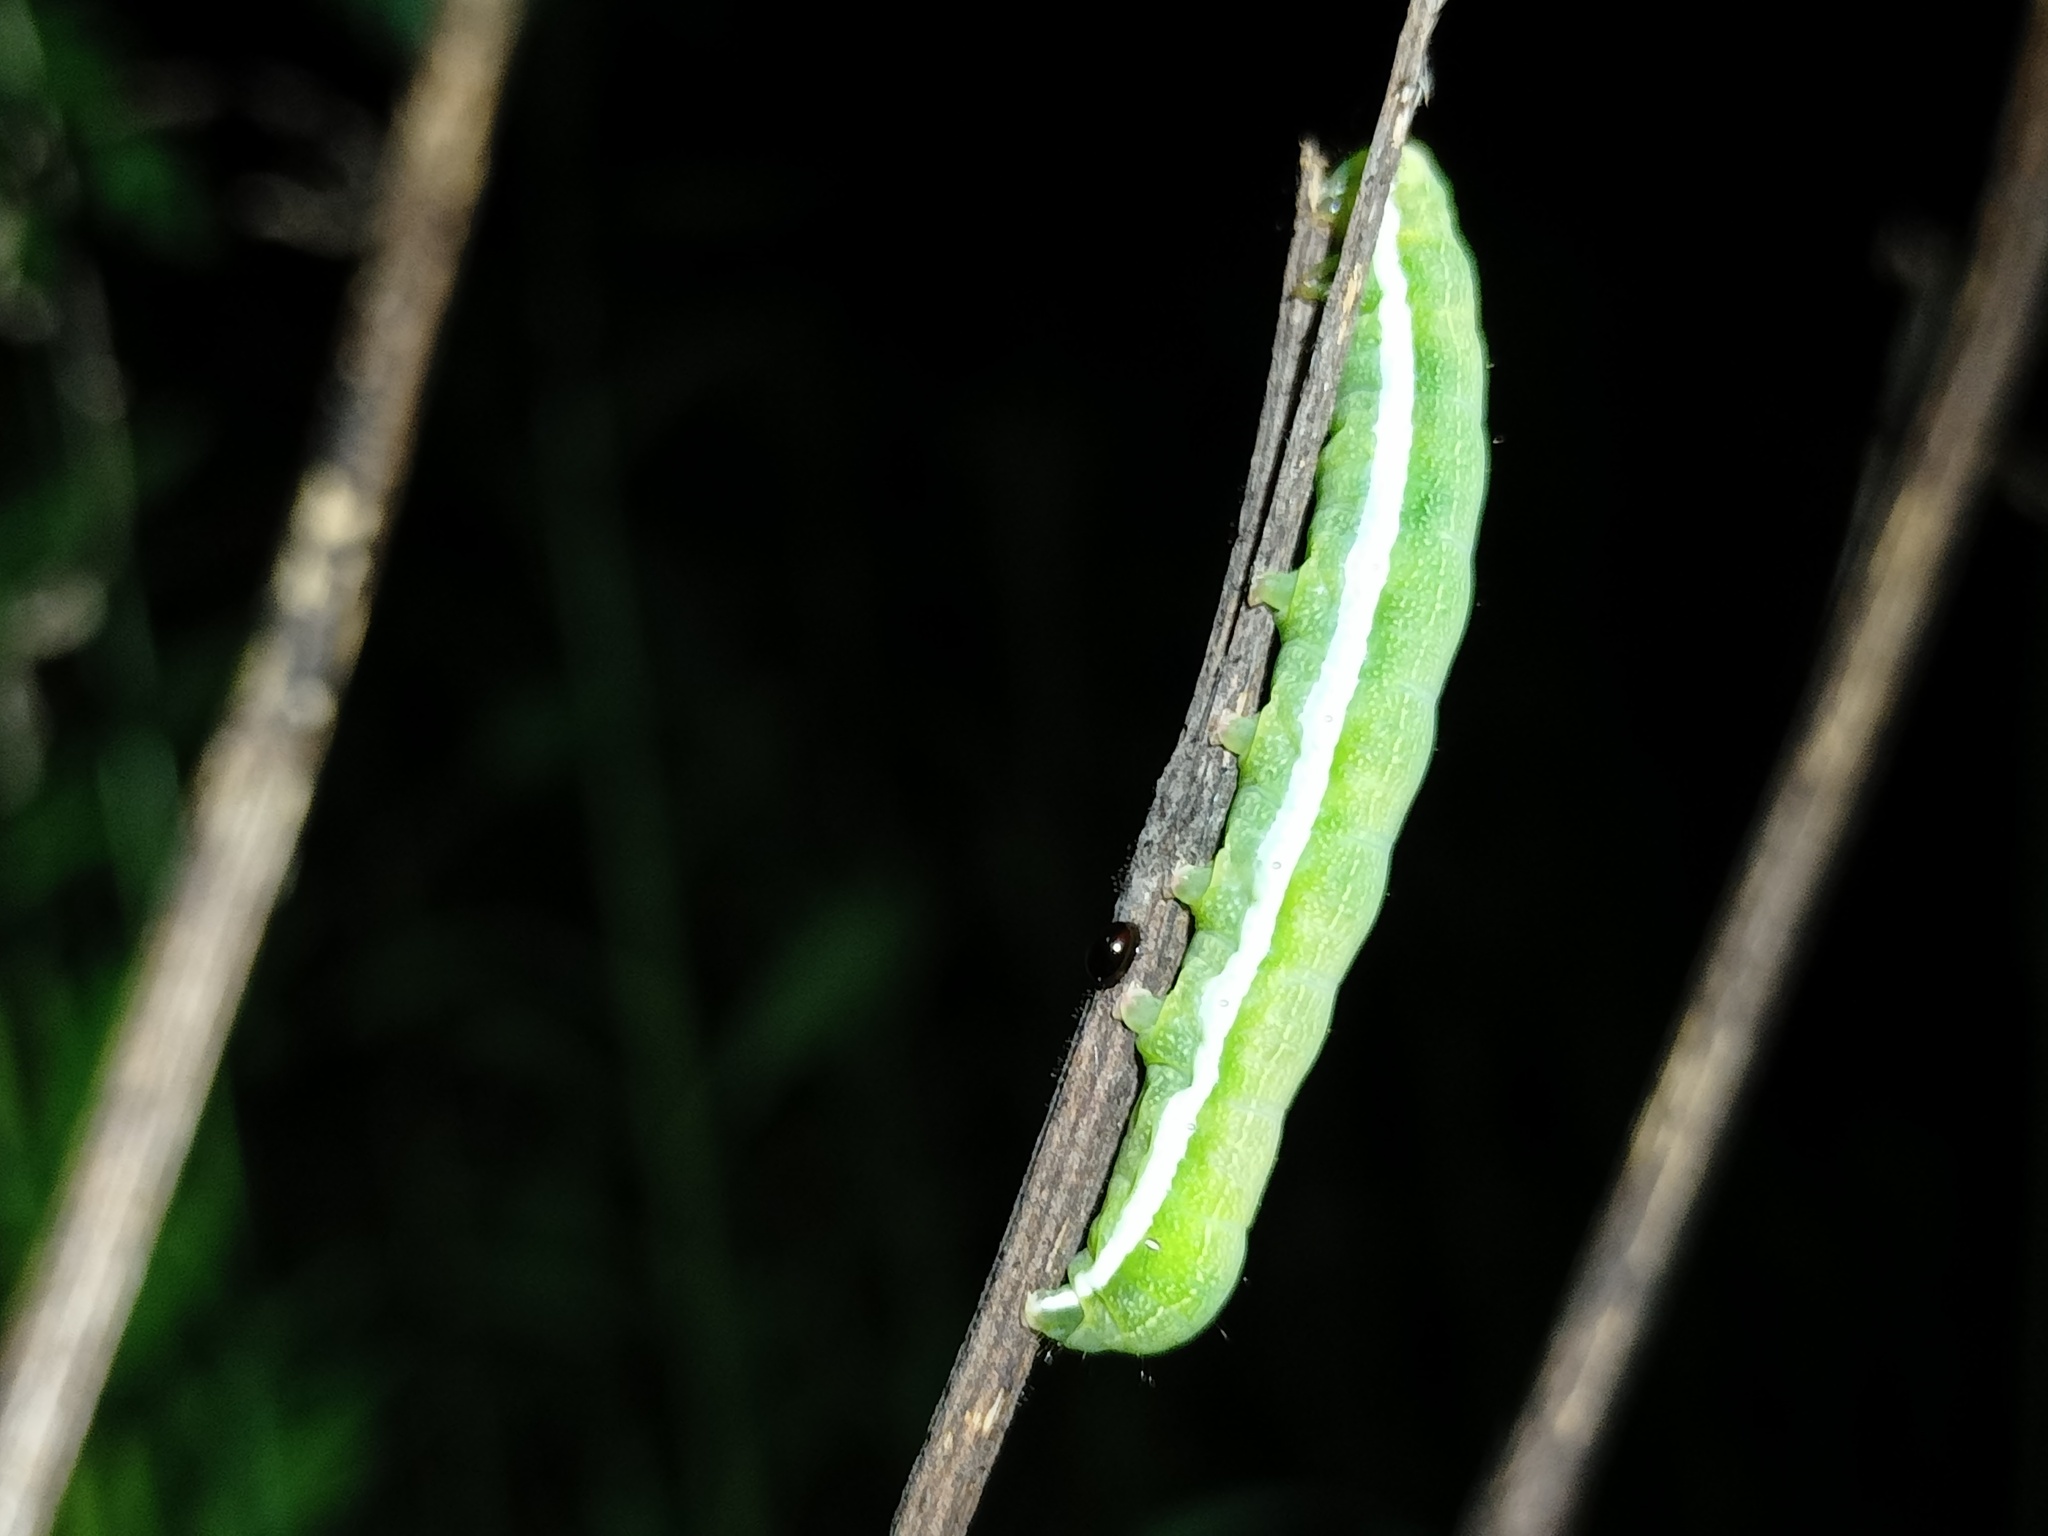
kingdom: Animalia
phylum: Arthropoda
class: Insecta
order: Lepidoptera
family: Noctuidae
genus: Orthosia
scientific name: Orthosia gothica
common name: Hebrew character
